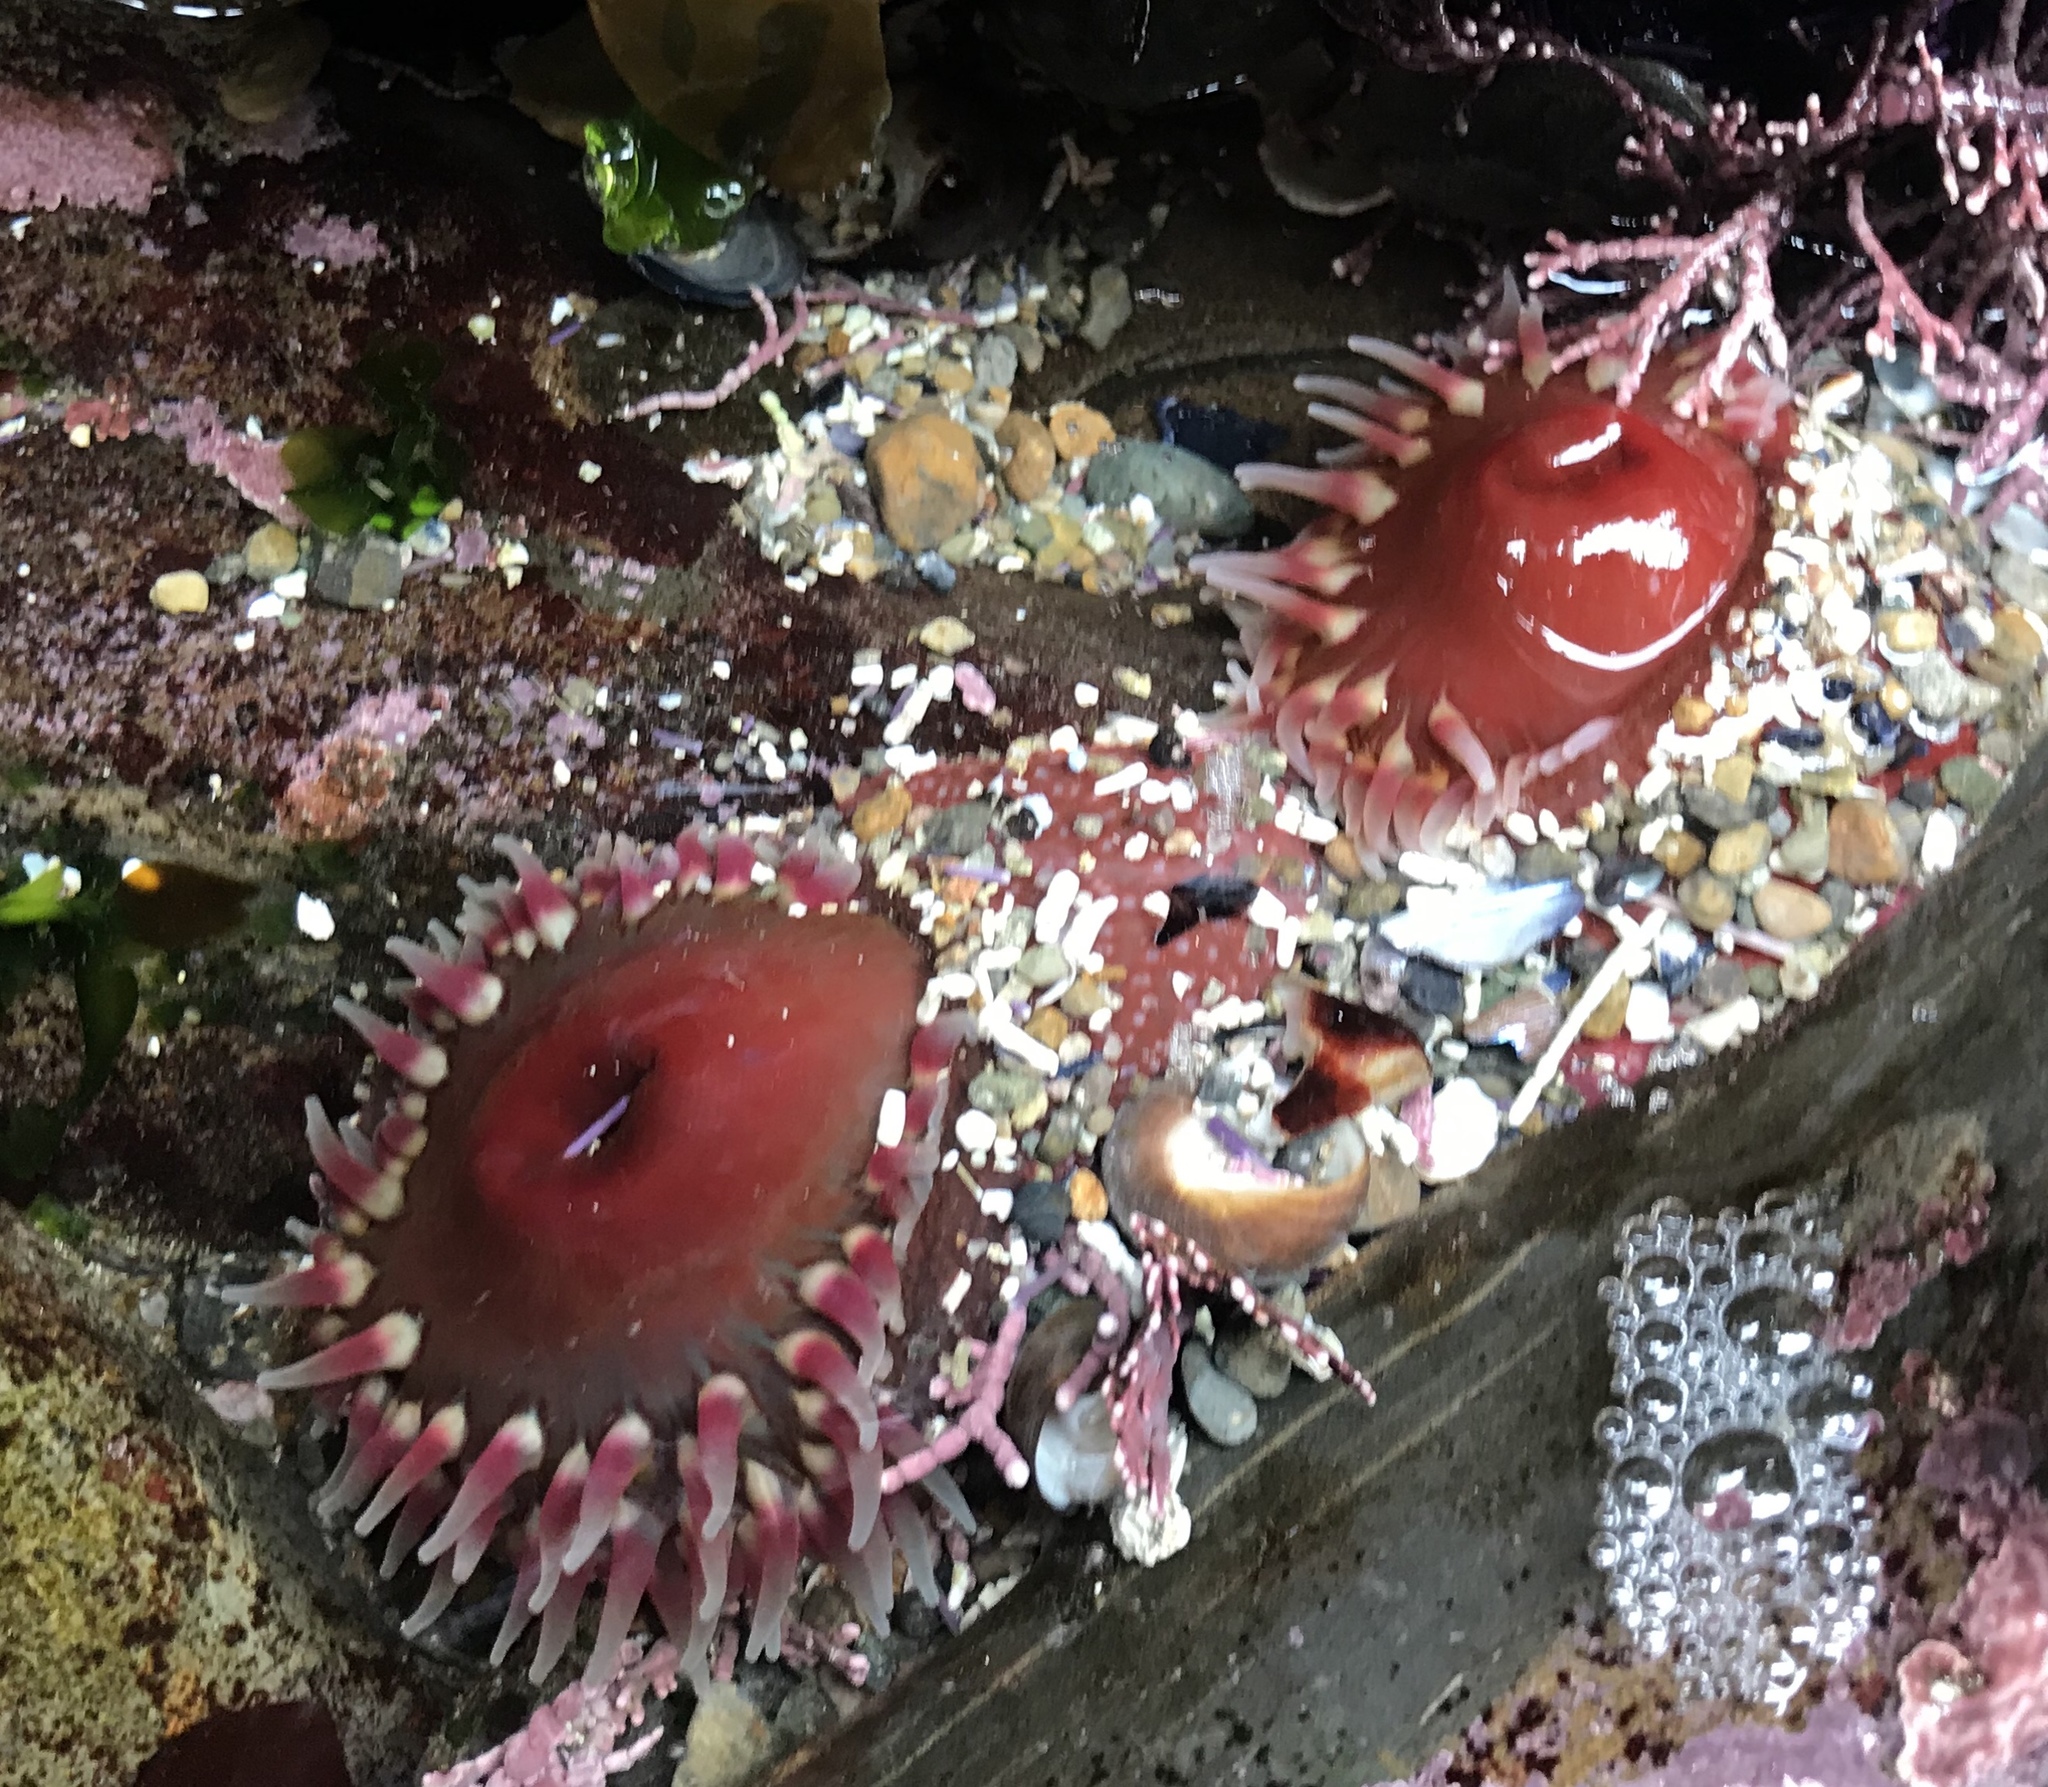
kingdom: Animalia
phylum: Cnidaria
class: Anthozoa
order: Actiniaria
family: Actiniidae
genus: Urticina
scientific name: Urticina clandestina
